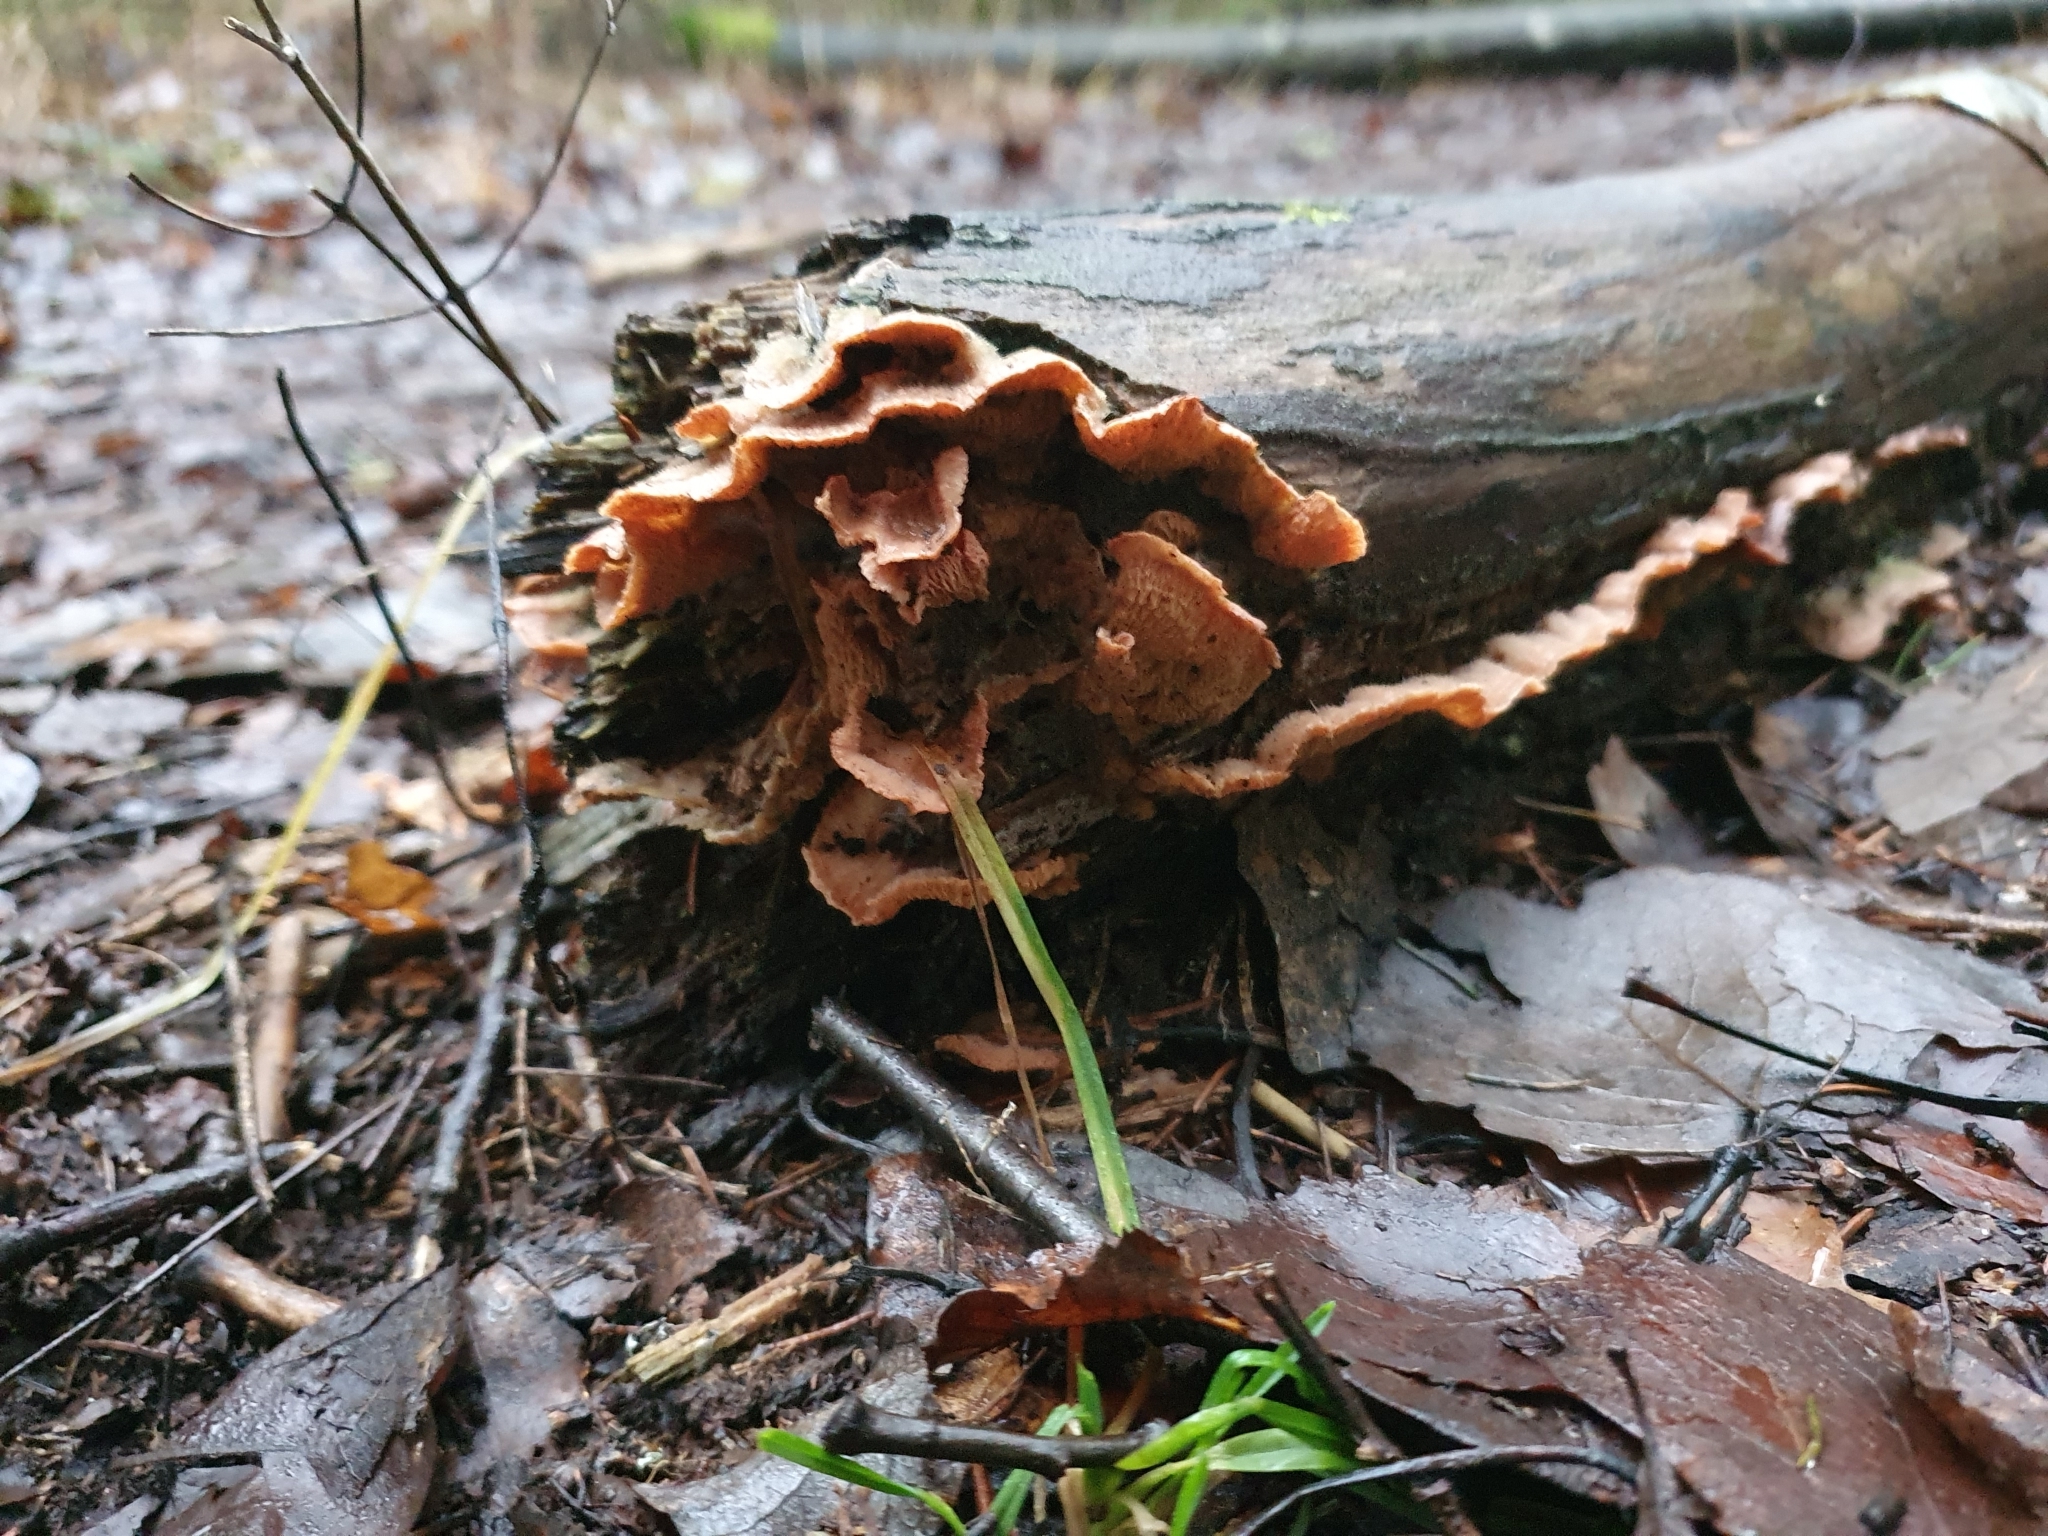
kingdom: Fungi
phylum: Basidiomycota
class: Agaricomycetes
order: Polyporales
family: Meruliaceae
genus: Phlebia
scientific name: Phlebia tremellosa
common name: Jelly rot
